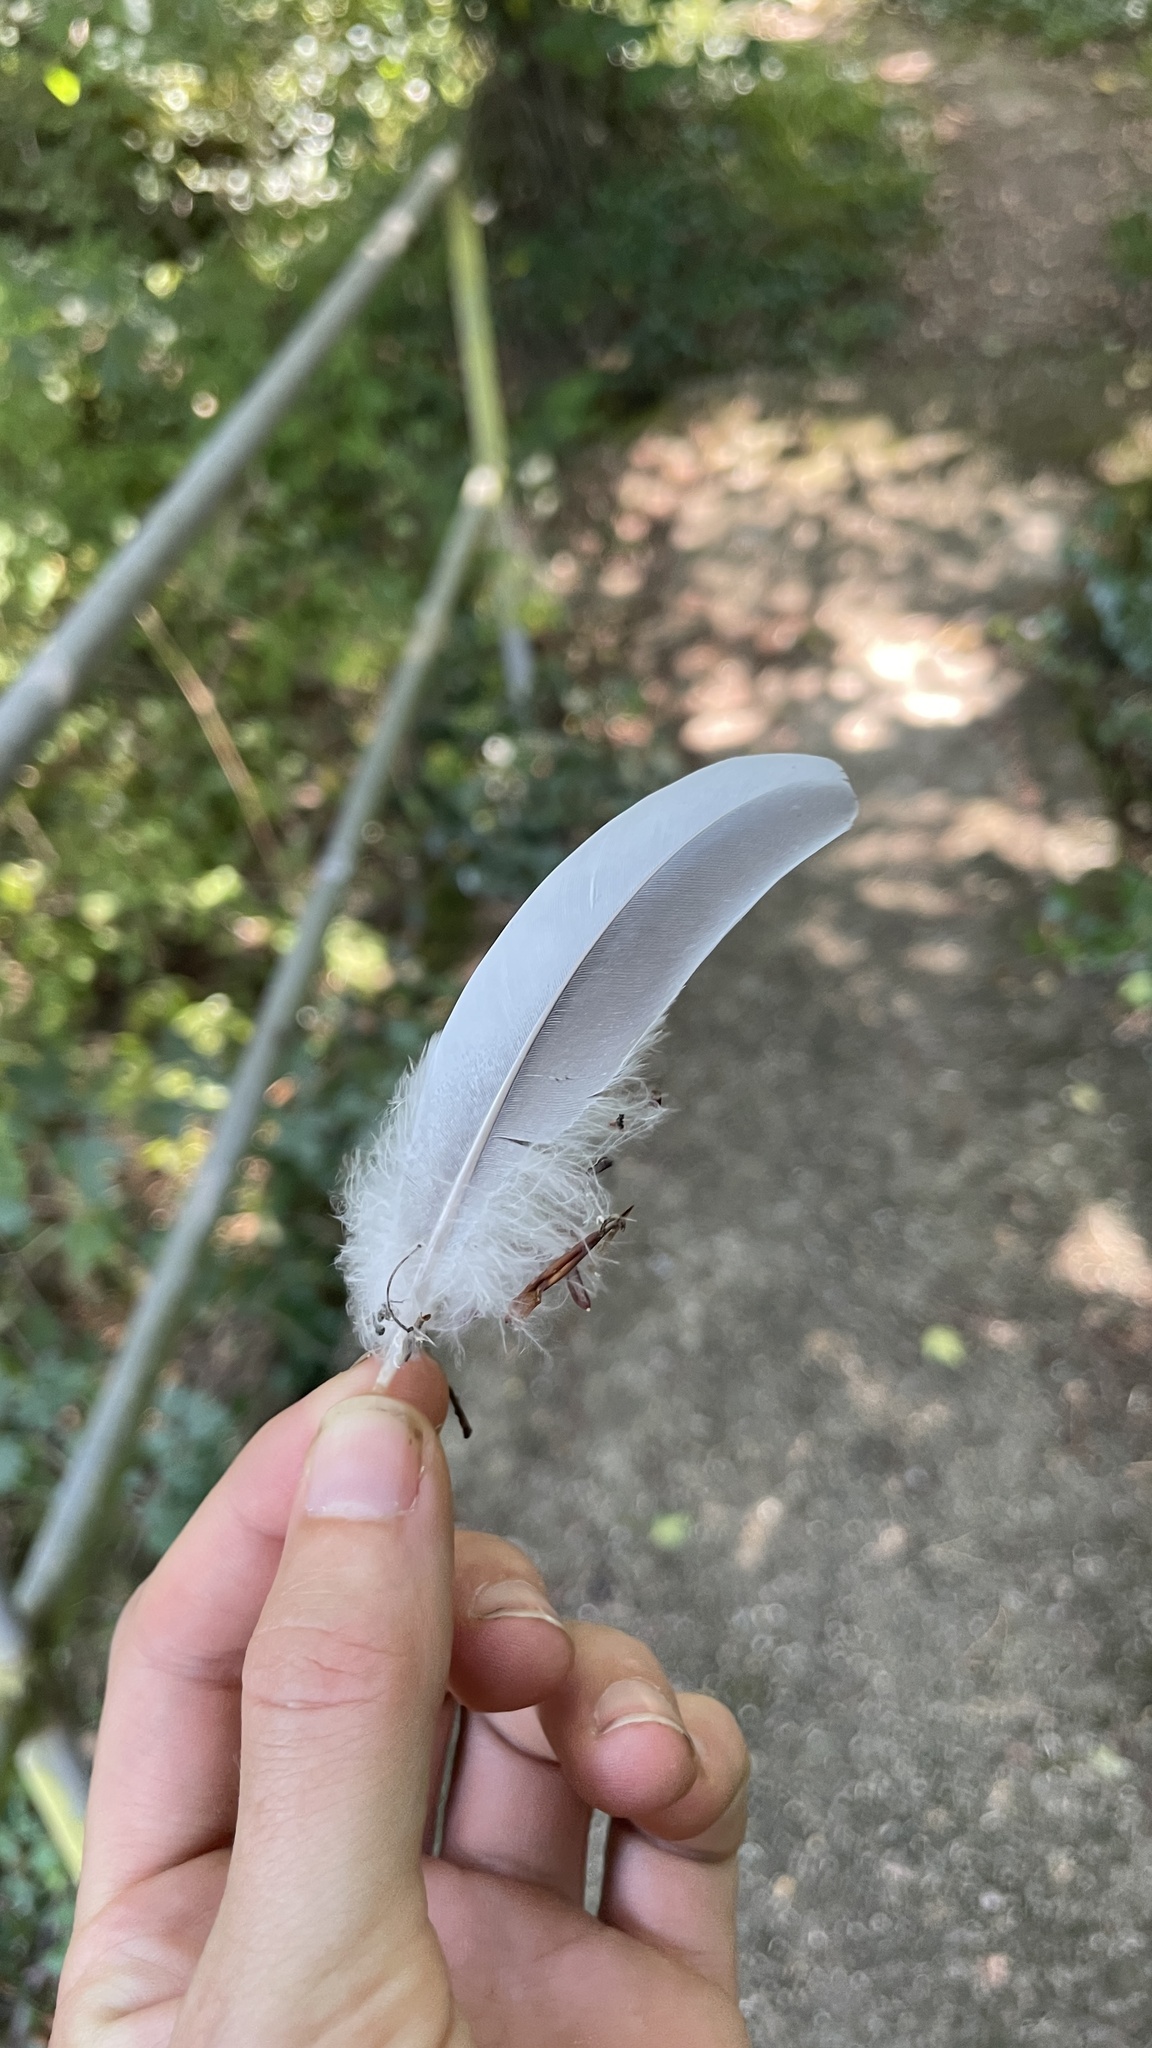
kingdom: Animalia
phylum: Chordata
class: Aves
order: Columbiformes
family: Columbidae
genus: Columba
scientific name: Columba palumbus
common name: Common wood pigeon
